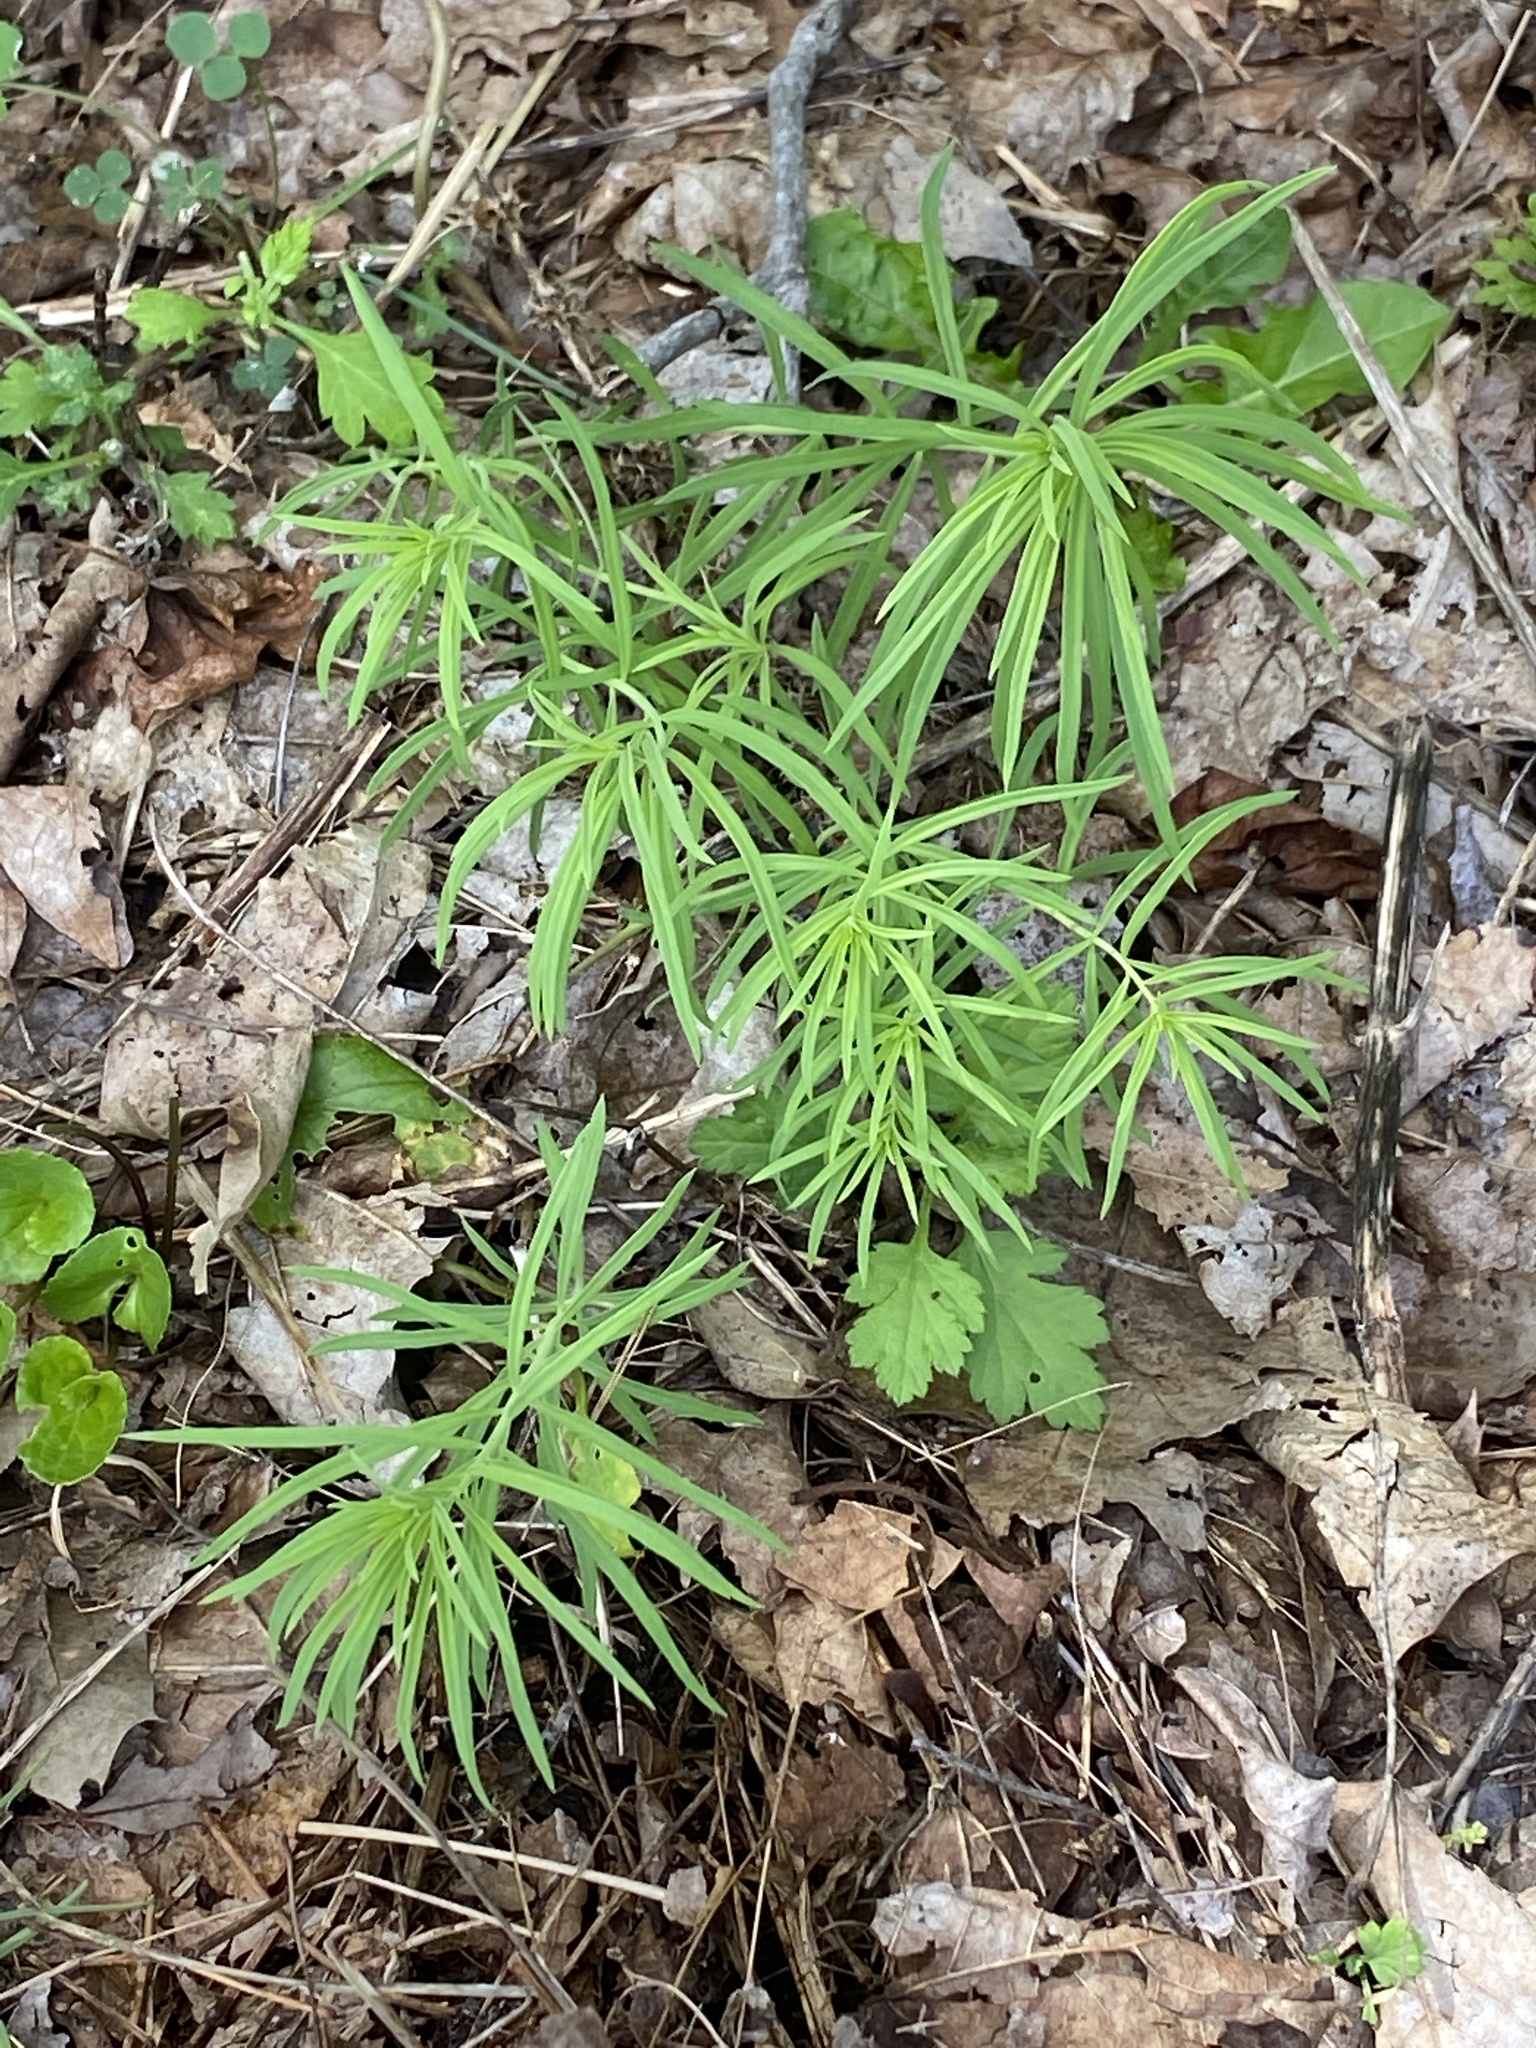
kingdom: Plantae
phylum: Tracheophyta
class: Magnoliopsida
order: Lamiales
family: Plantaginaceae
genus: Linaria
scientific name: Linaria vulgaris
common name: Butter and eggs
